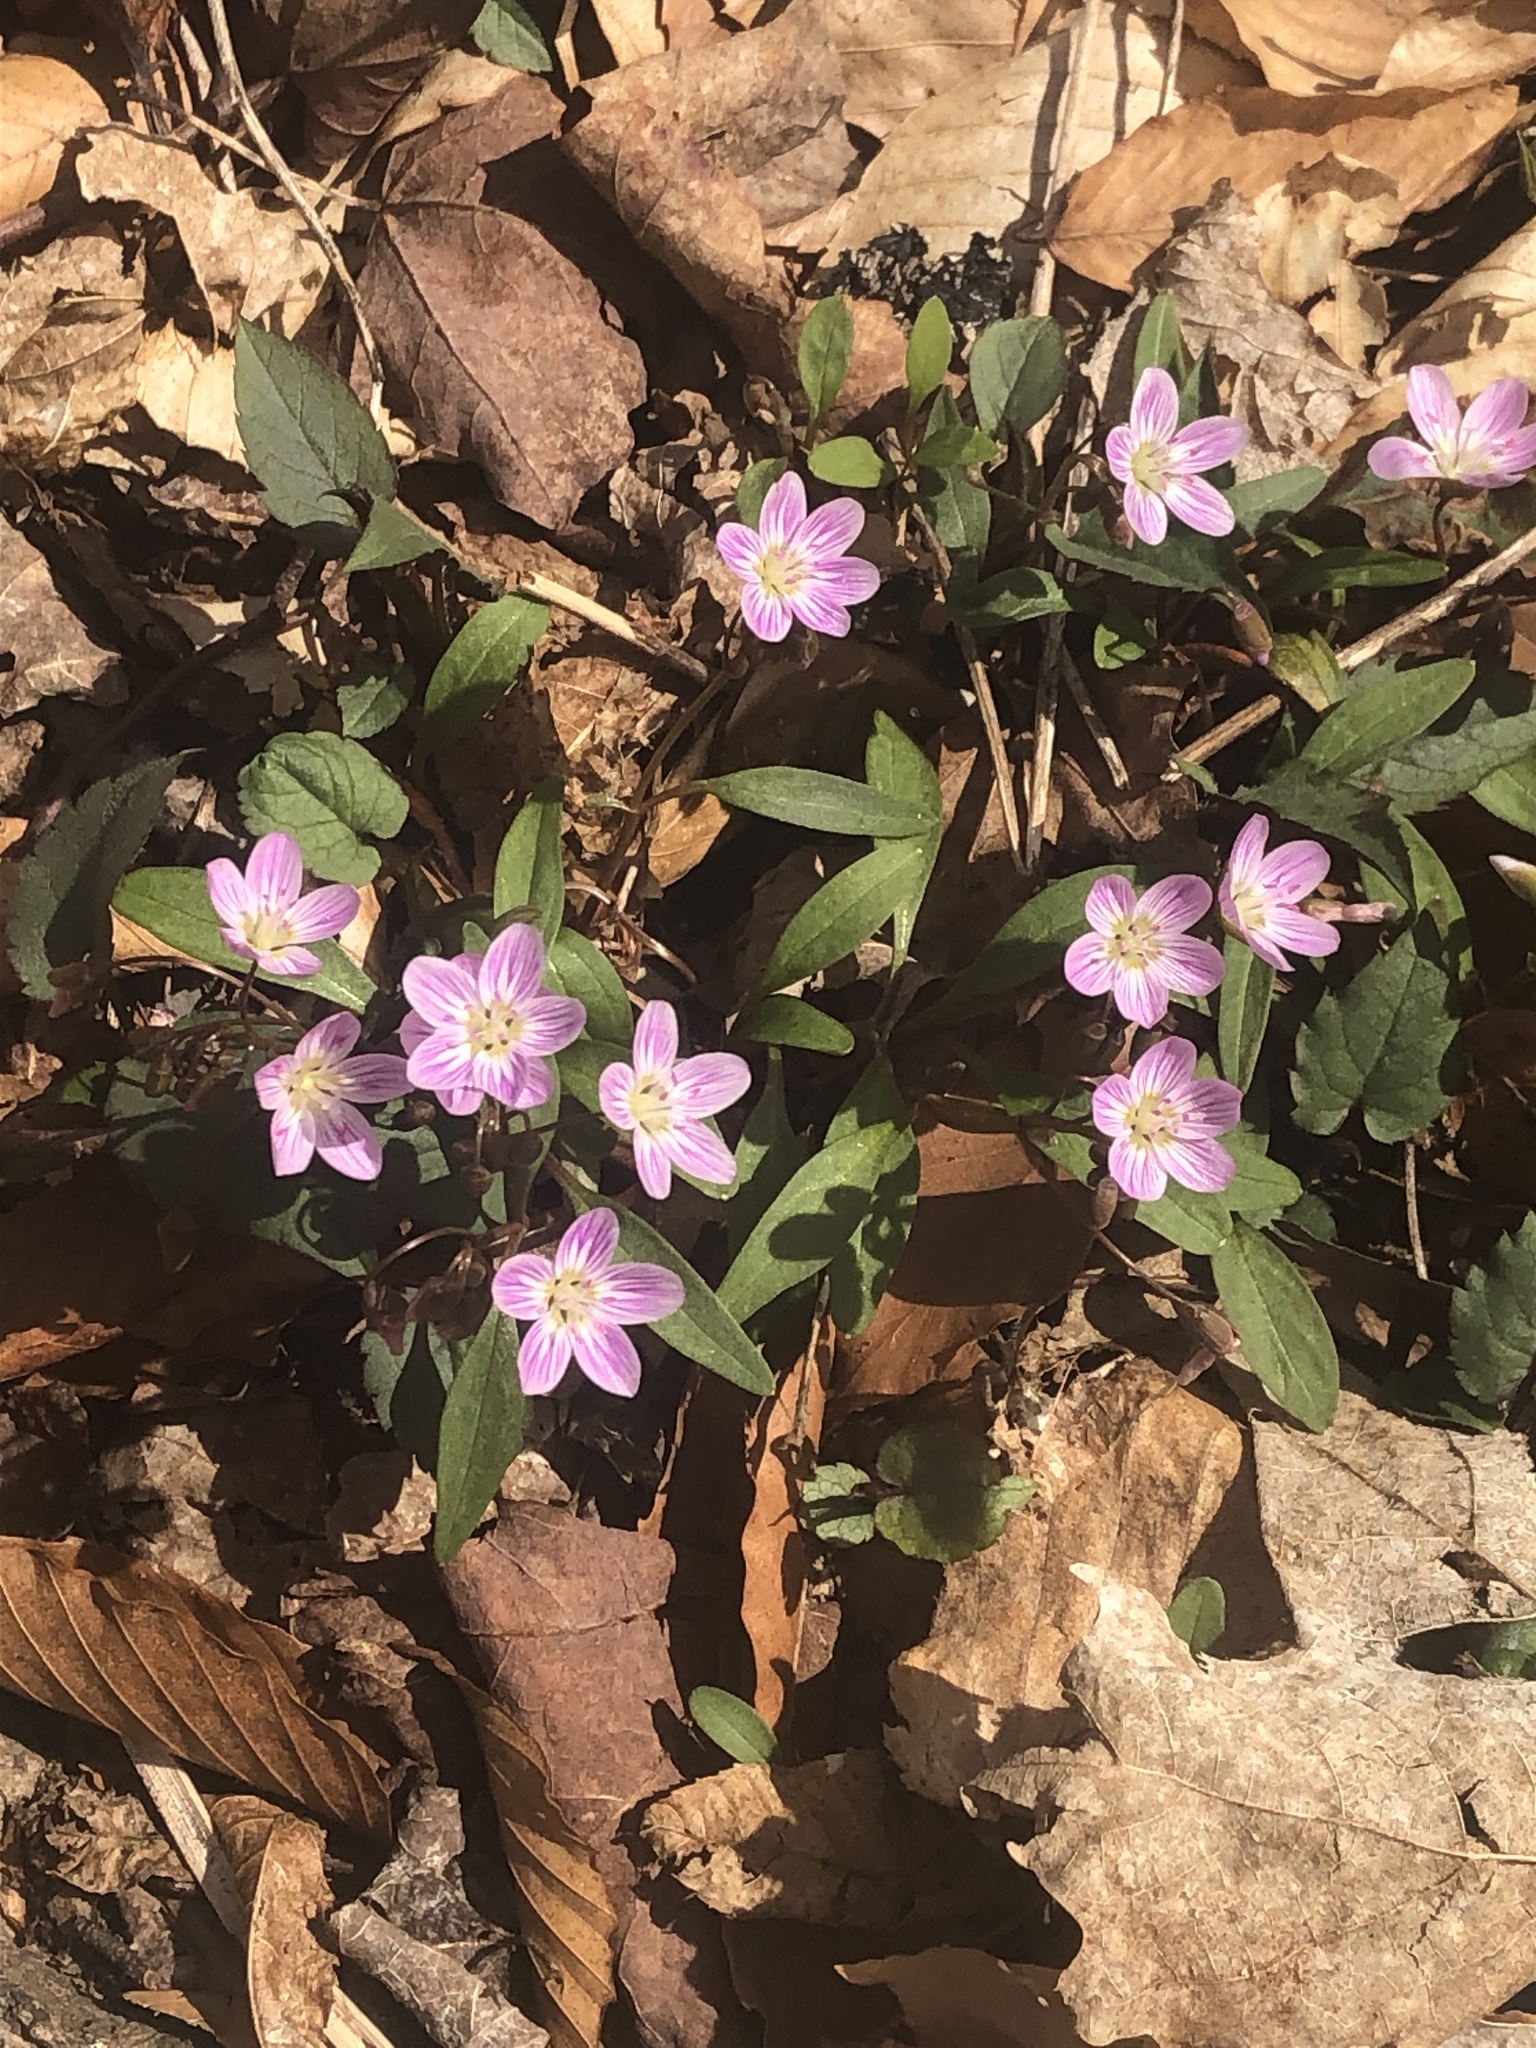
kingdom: Plantae
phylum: Tracheophyta
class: Magnoliopsida
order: Caryophyllales
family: Montiaceae
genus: Claytonia
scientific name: Claytonia caroliniana
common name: Carolina spring beauty
